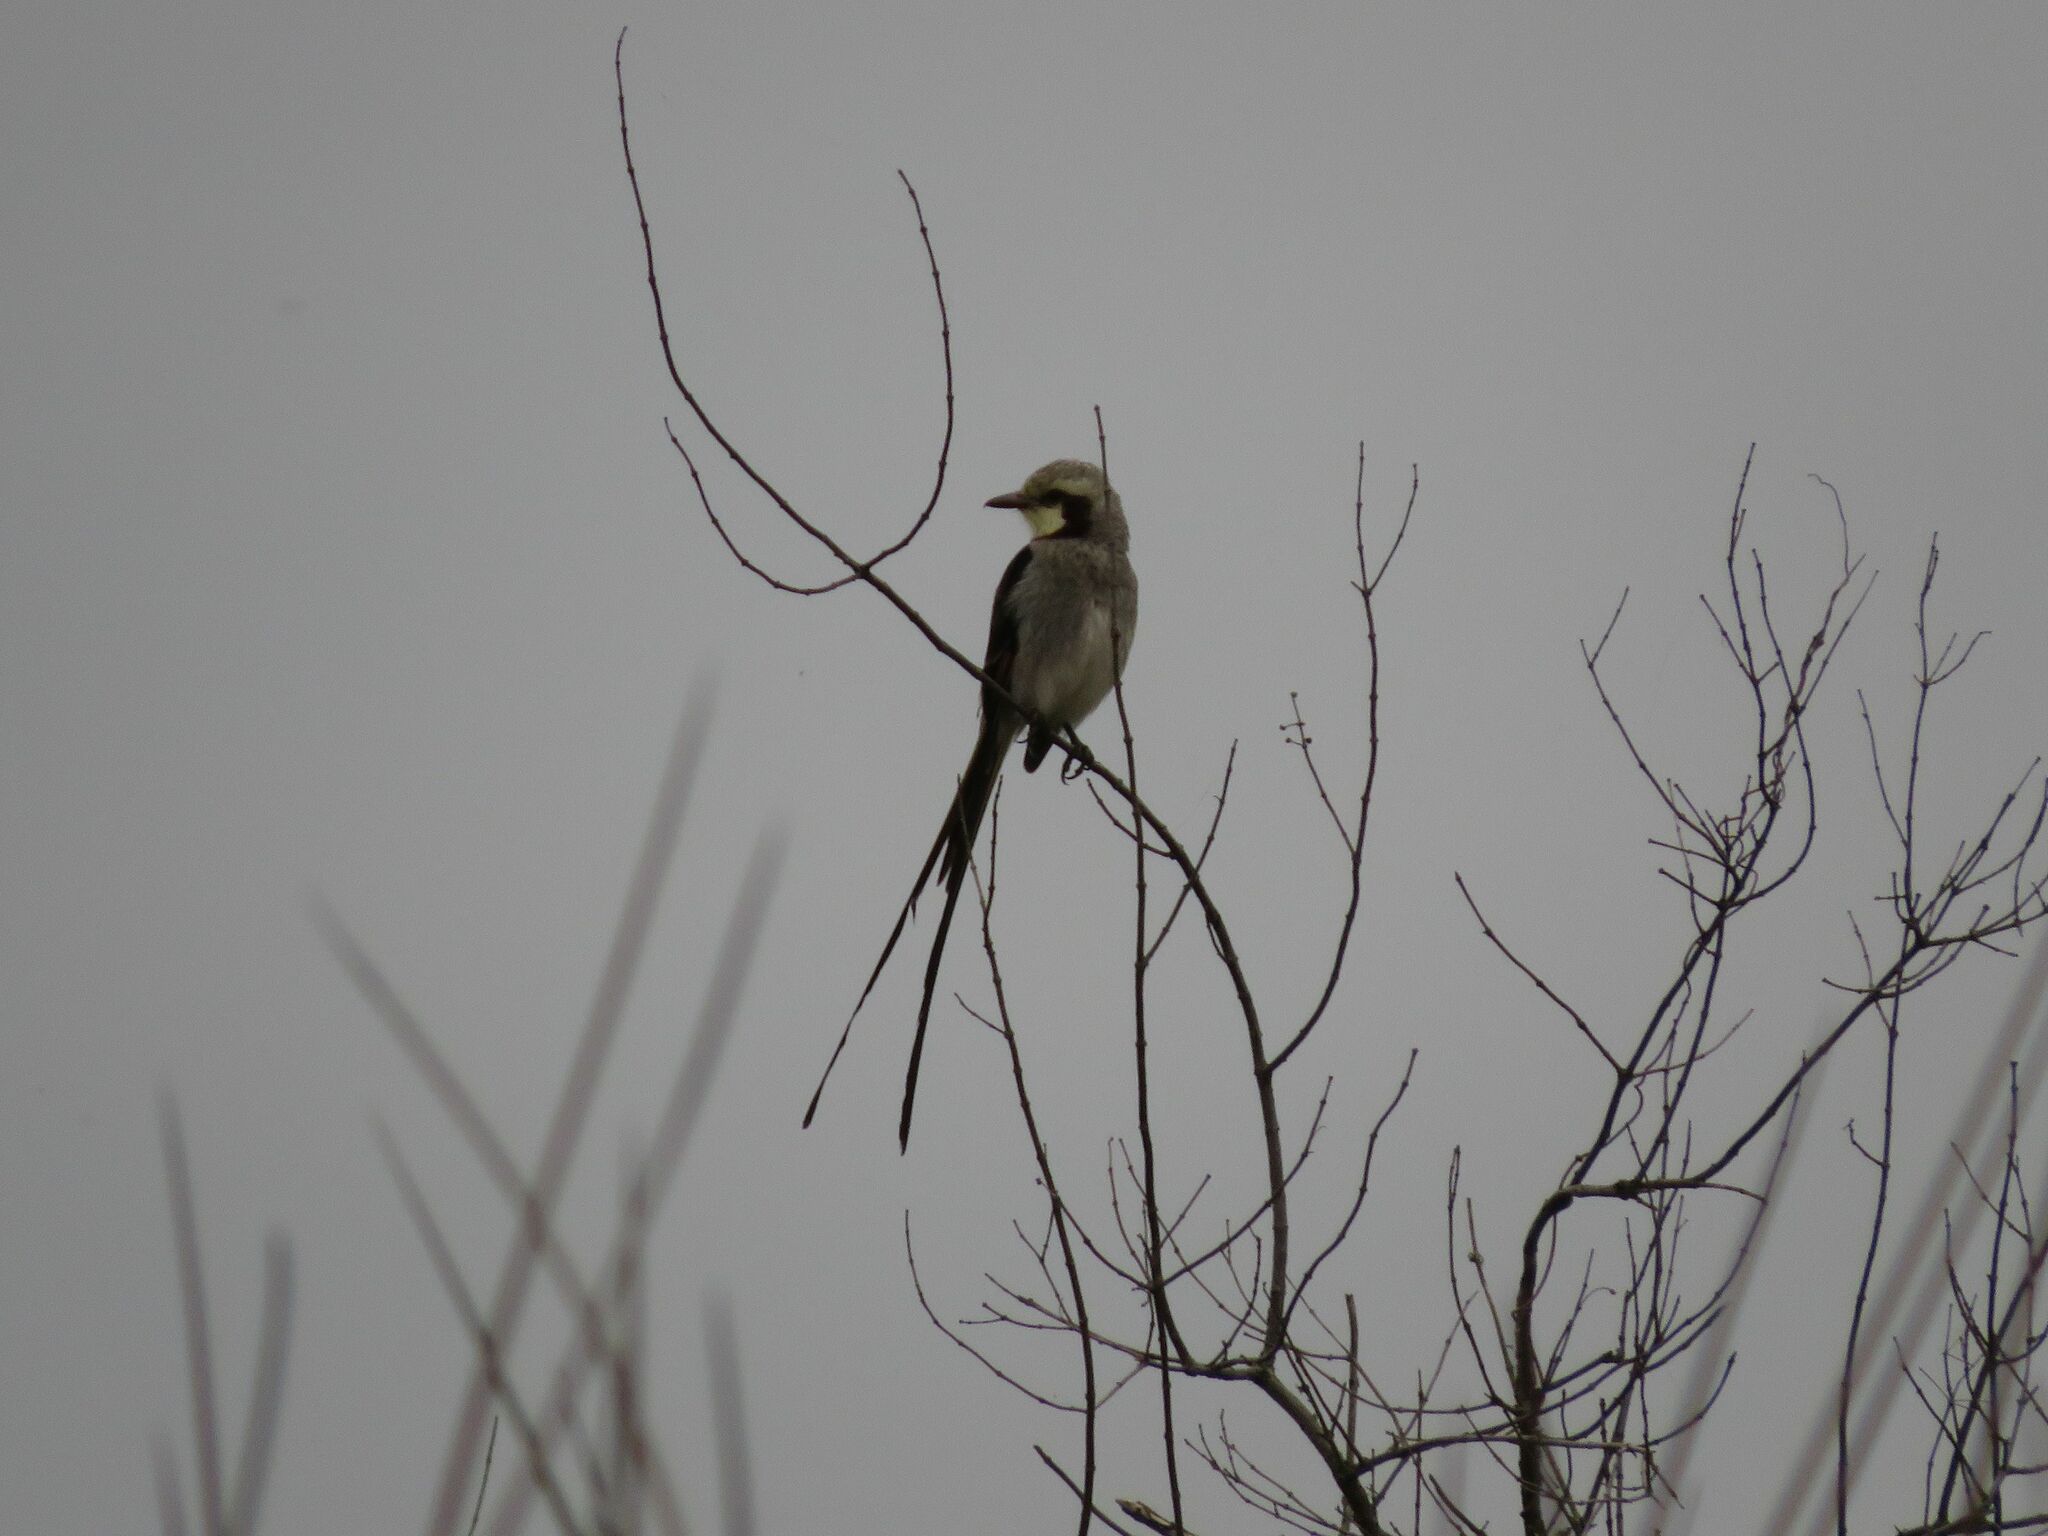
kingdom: Animalia
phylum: Chordata
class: Aves
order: Passeriformes
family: Tyrannidae
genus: Gubernetes
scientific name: Gubernetes yetapa
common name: Streamer-tailed tyrant
